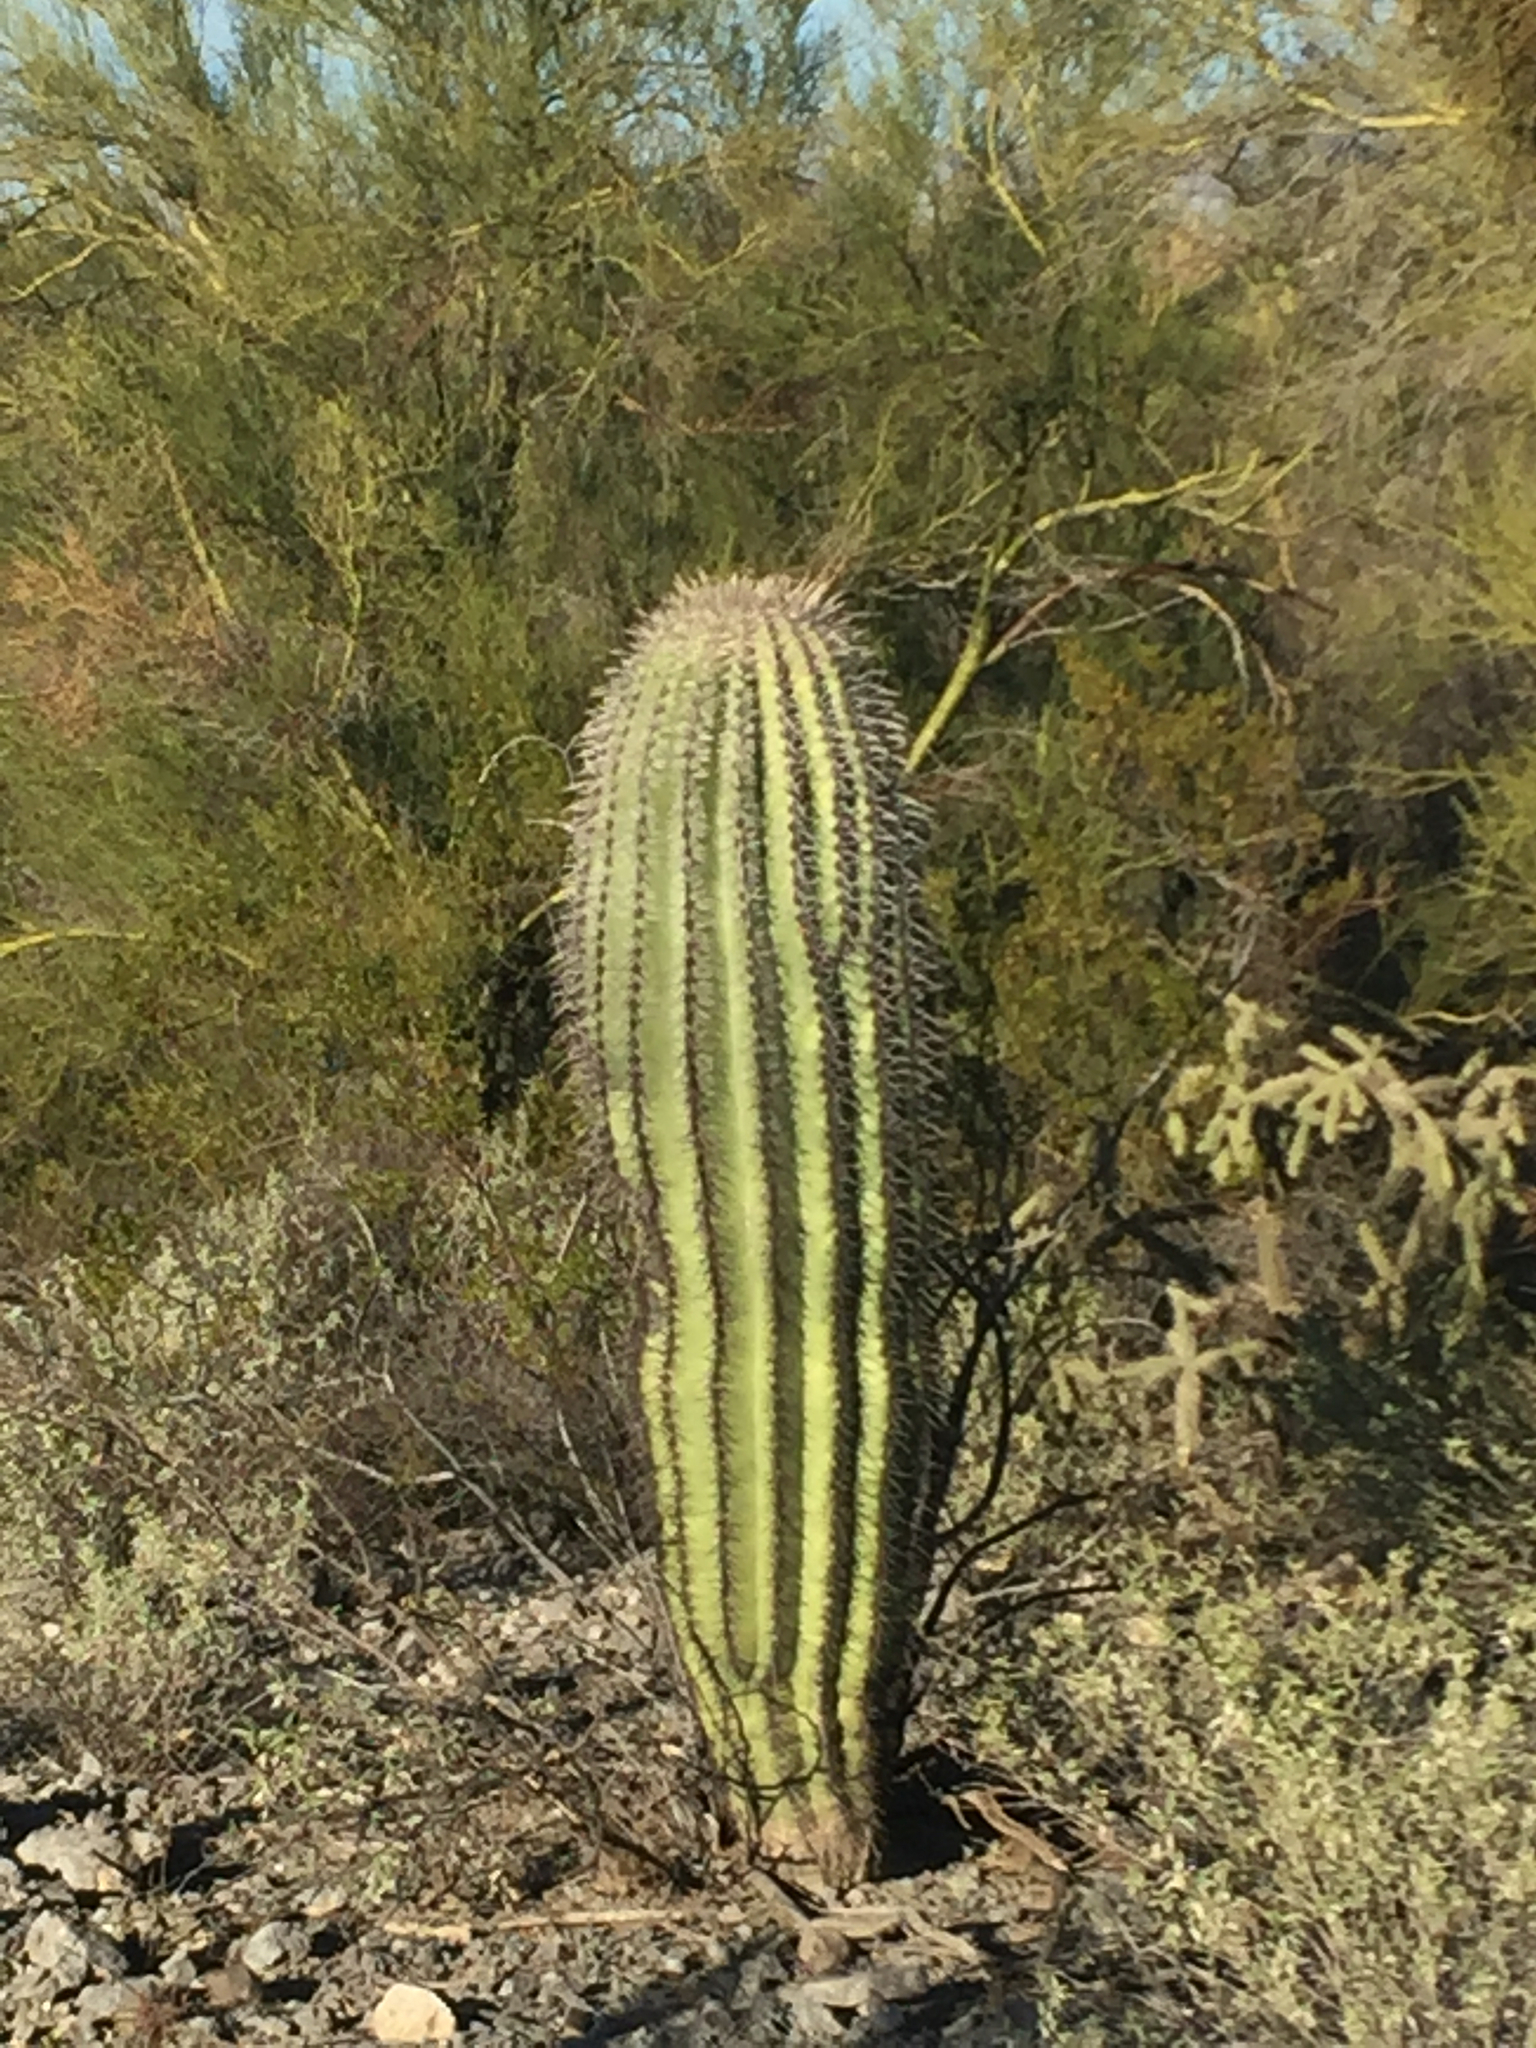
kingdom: Plantae
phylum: Tracheophyta
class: Magnoliopsida
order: Caryophyllales
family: Cactaceae
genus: Carnegiea
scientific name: Carnegiea gigantea
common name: Saguaro
